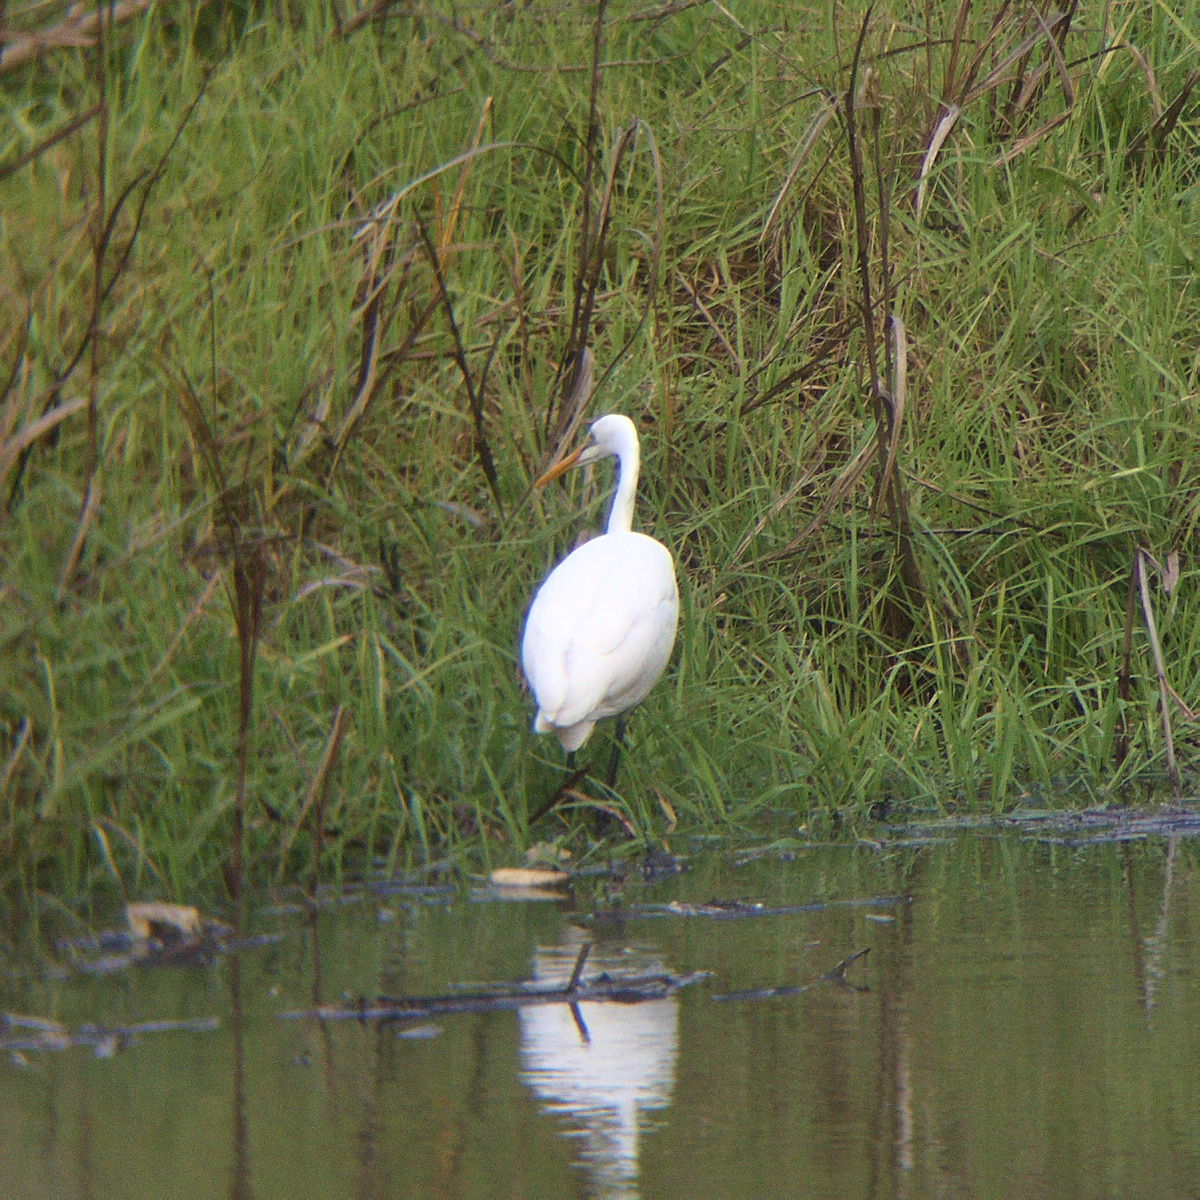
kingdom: Animalia
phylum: Chordata
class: Aves
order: Pelecaniformes
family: Ardeidae
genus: Ardea
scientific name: Ardea alba
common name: Great egret
